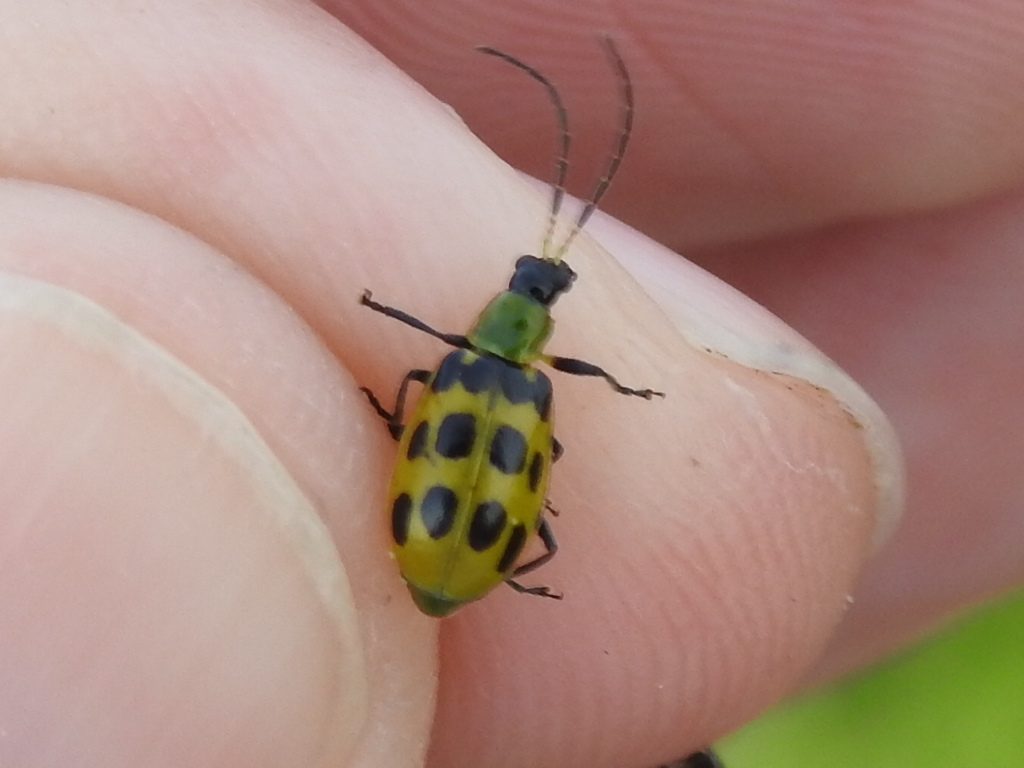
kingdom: Animalia
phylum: Arthropoda
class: Insecta
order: Coleoptera
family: Chrysomelidae
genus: Diabrotica
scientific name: Diabrotica undecimpunctata
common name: Spotted cucumber beetle
